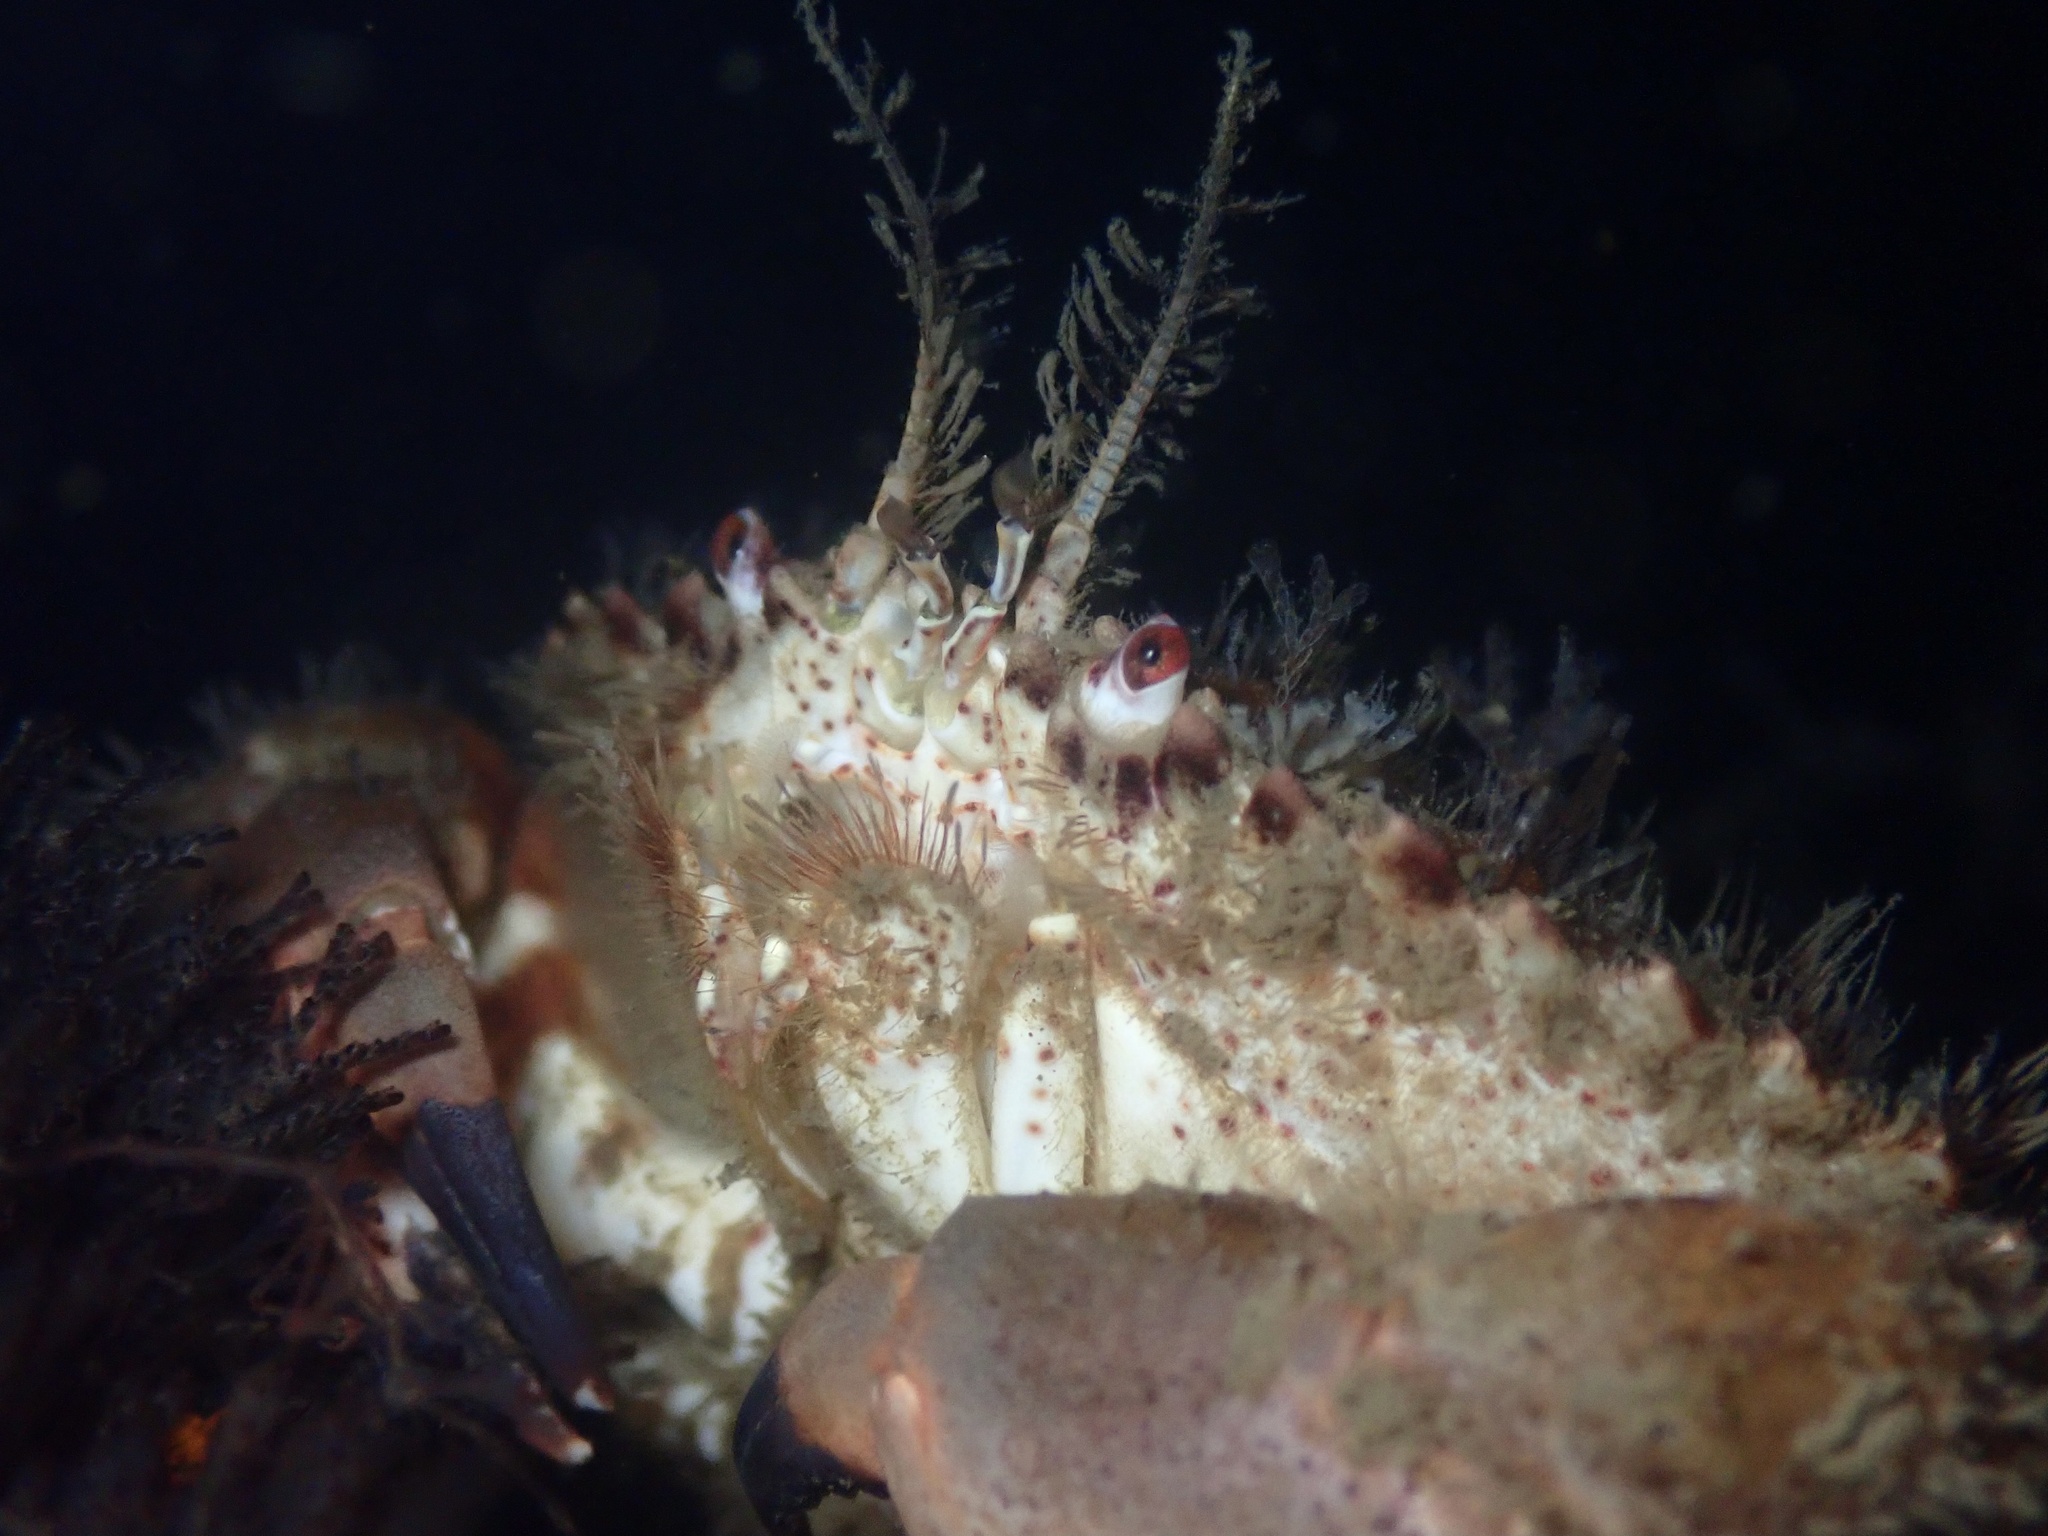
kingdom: Animalia
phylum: Arthropoda
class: Malacostraca
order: Decapoda
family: Cancridae
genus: Romaleon
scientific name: Romaleon antennarium
